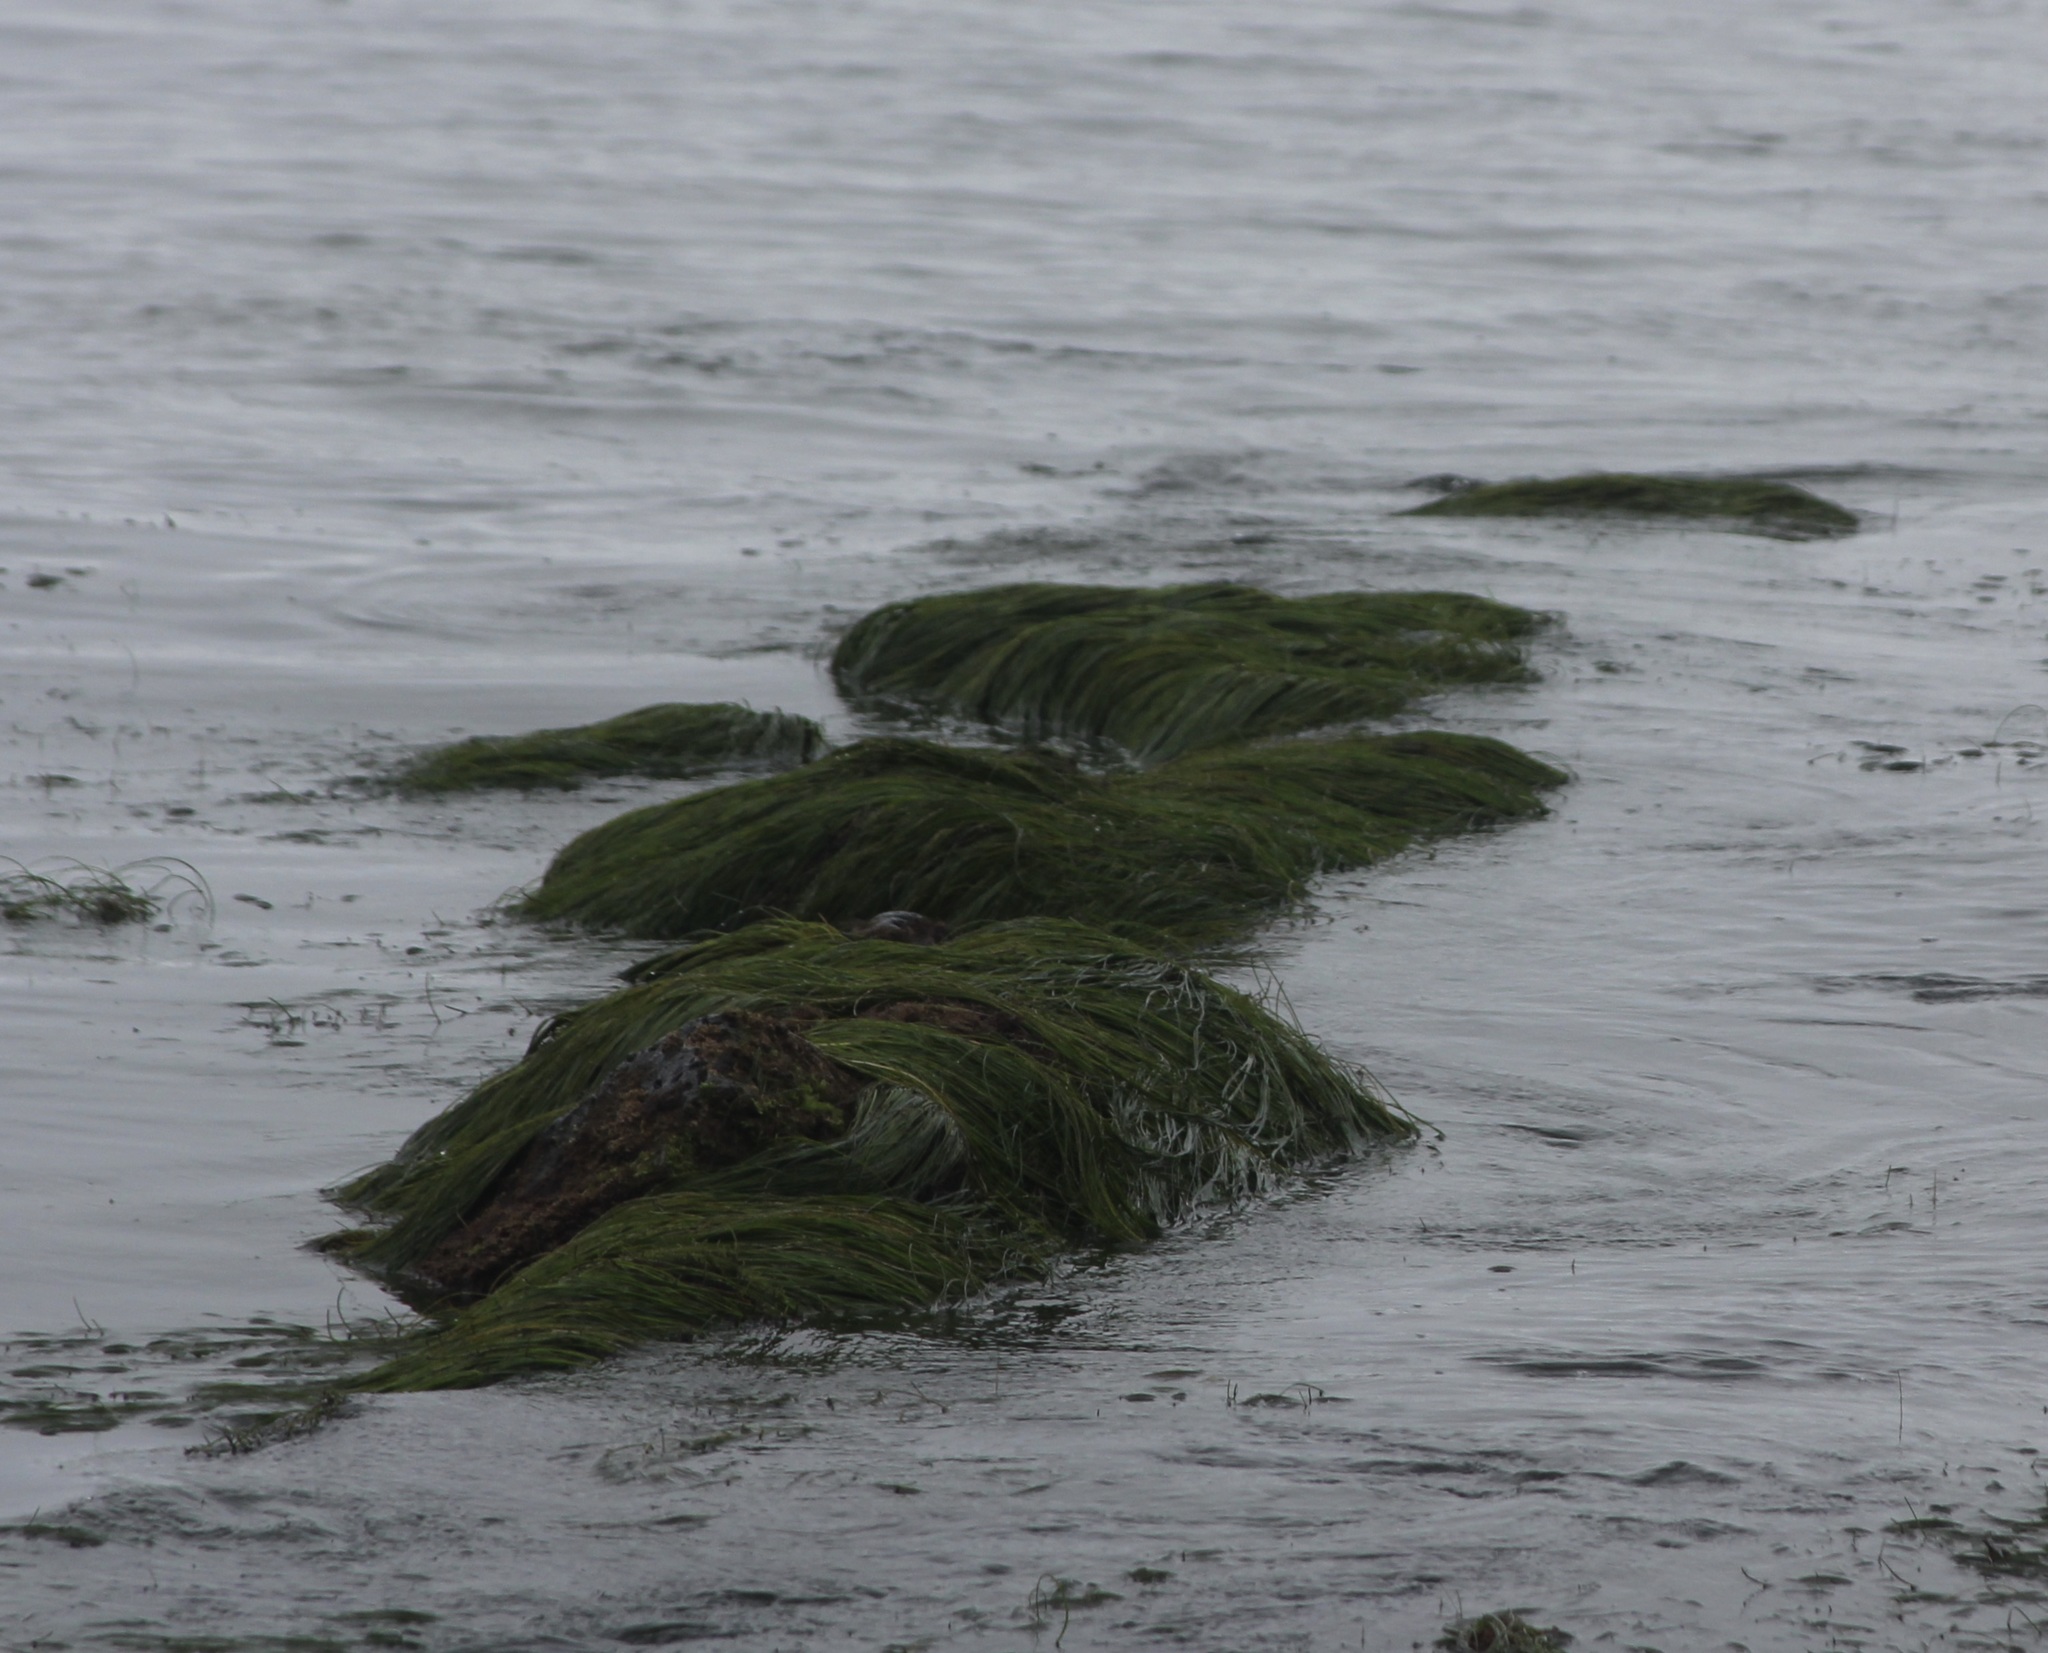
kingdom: Plantae
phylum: Tracheophyta
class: Liliopsida
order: Alismatales
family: Zosteraceae
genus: Phyllospadix
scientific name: Phyllospadix torreyi
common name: Surfgrass
